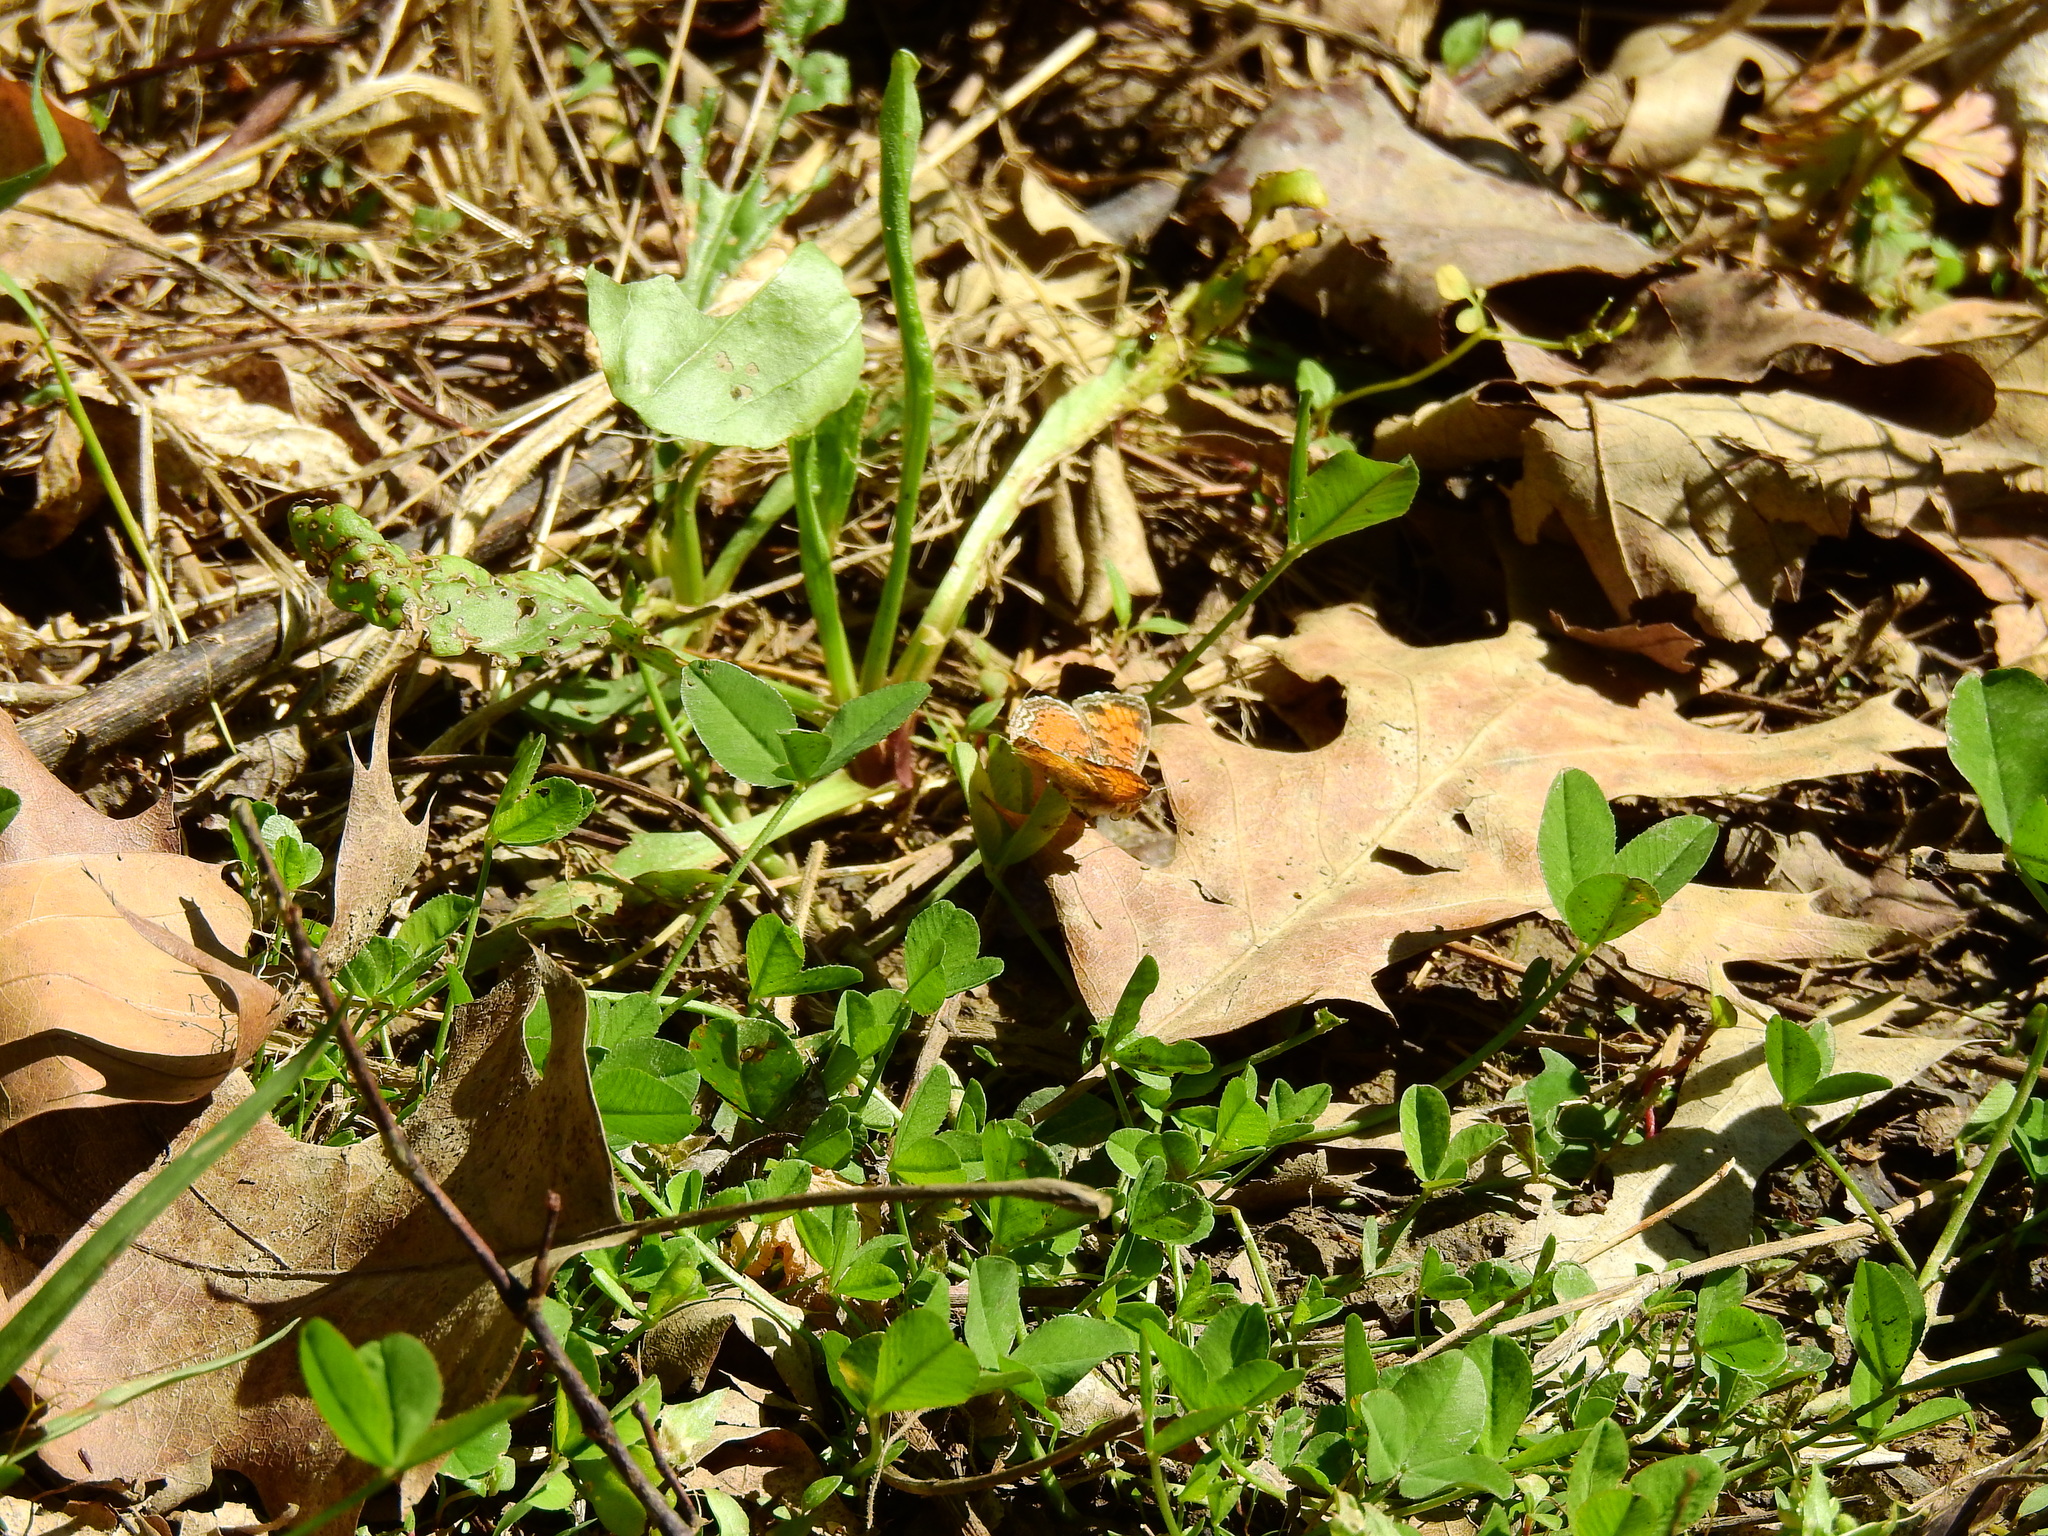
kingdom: Animalia
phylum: Arthropoda
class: Insecta
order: Lepidoptera
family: Nymphalidae
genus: Phyciodes
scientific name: Phyciodes tharos
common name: Pearl crescent
